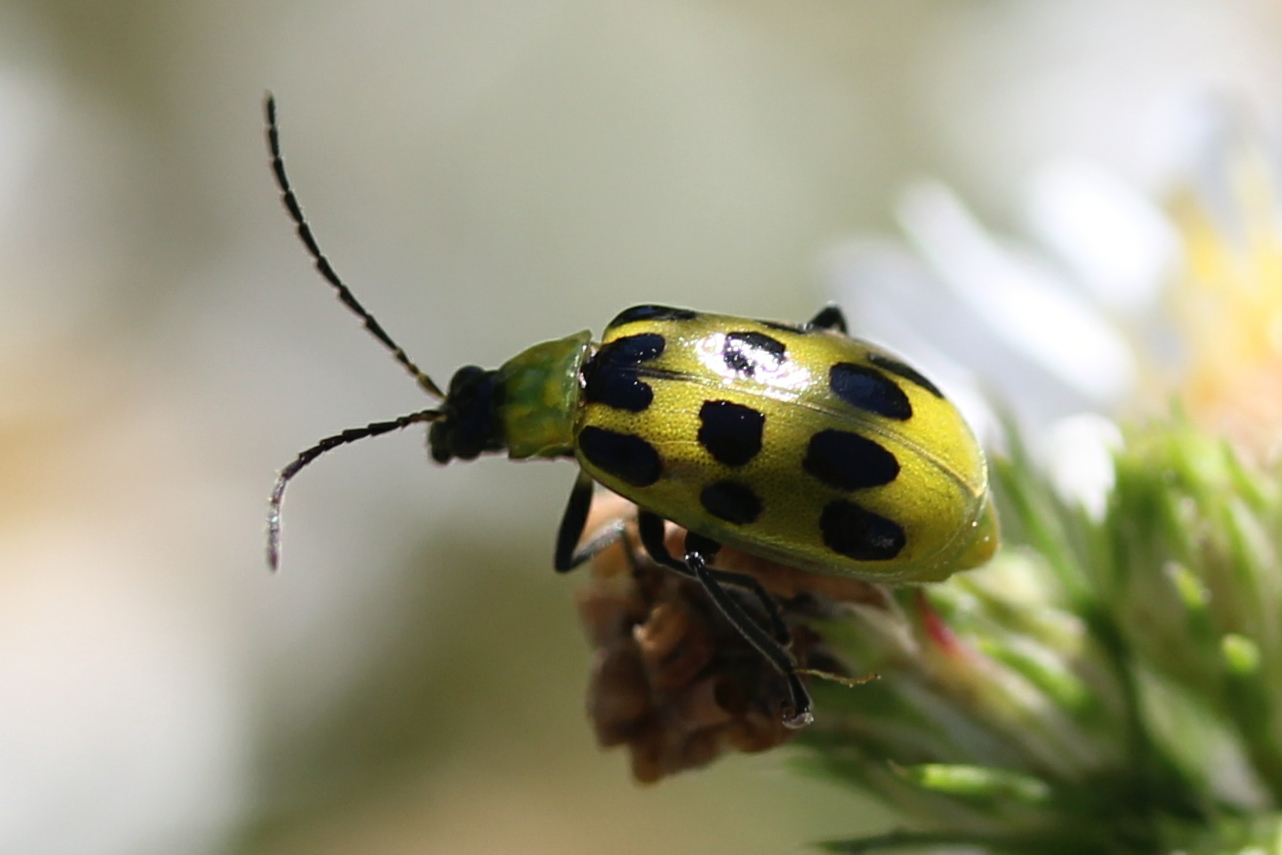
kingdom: Animalia
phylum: Arthropoda
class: Insecta
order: Coleoptera
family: Chrysomelidae
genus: Diabrotica
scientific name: Diabrotica undecimpunctata
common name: Spotted cucumber beetle
